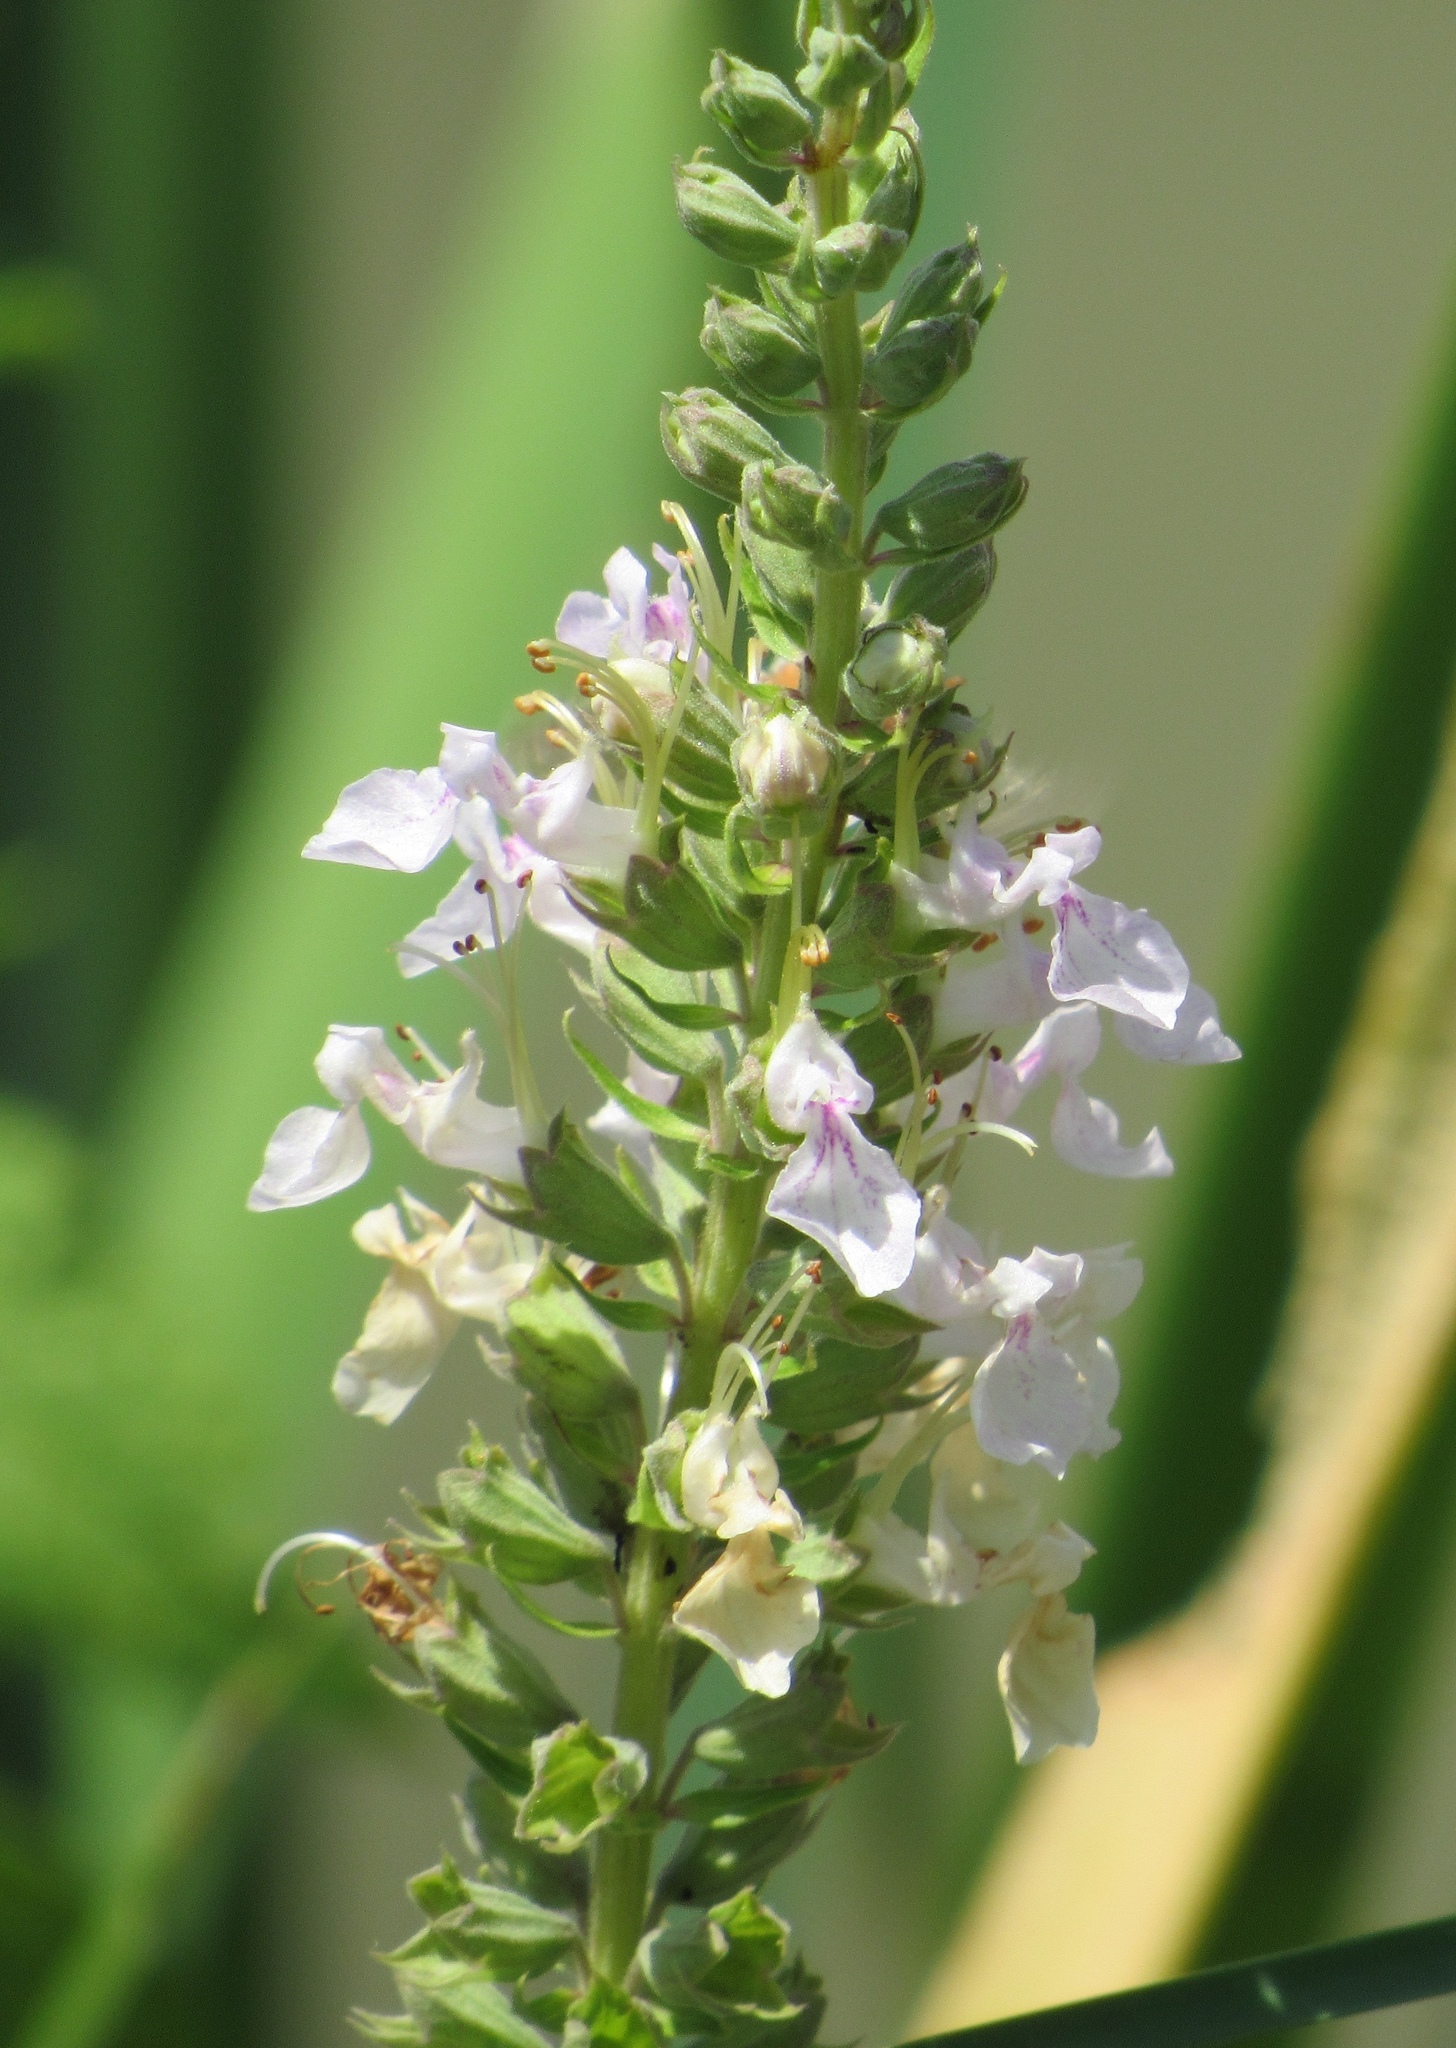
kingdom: Plantae
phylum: Tracheophyta
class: Magnoliopsida
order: Lamiales
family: Lamiaceae
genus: Teucrium
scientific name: Teucrium canadense
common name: American germander
